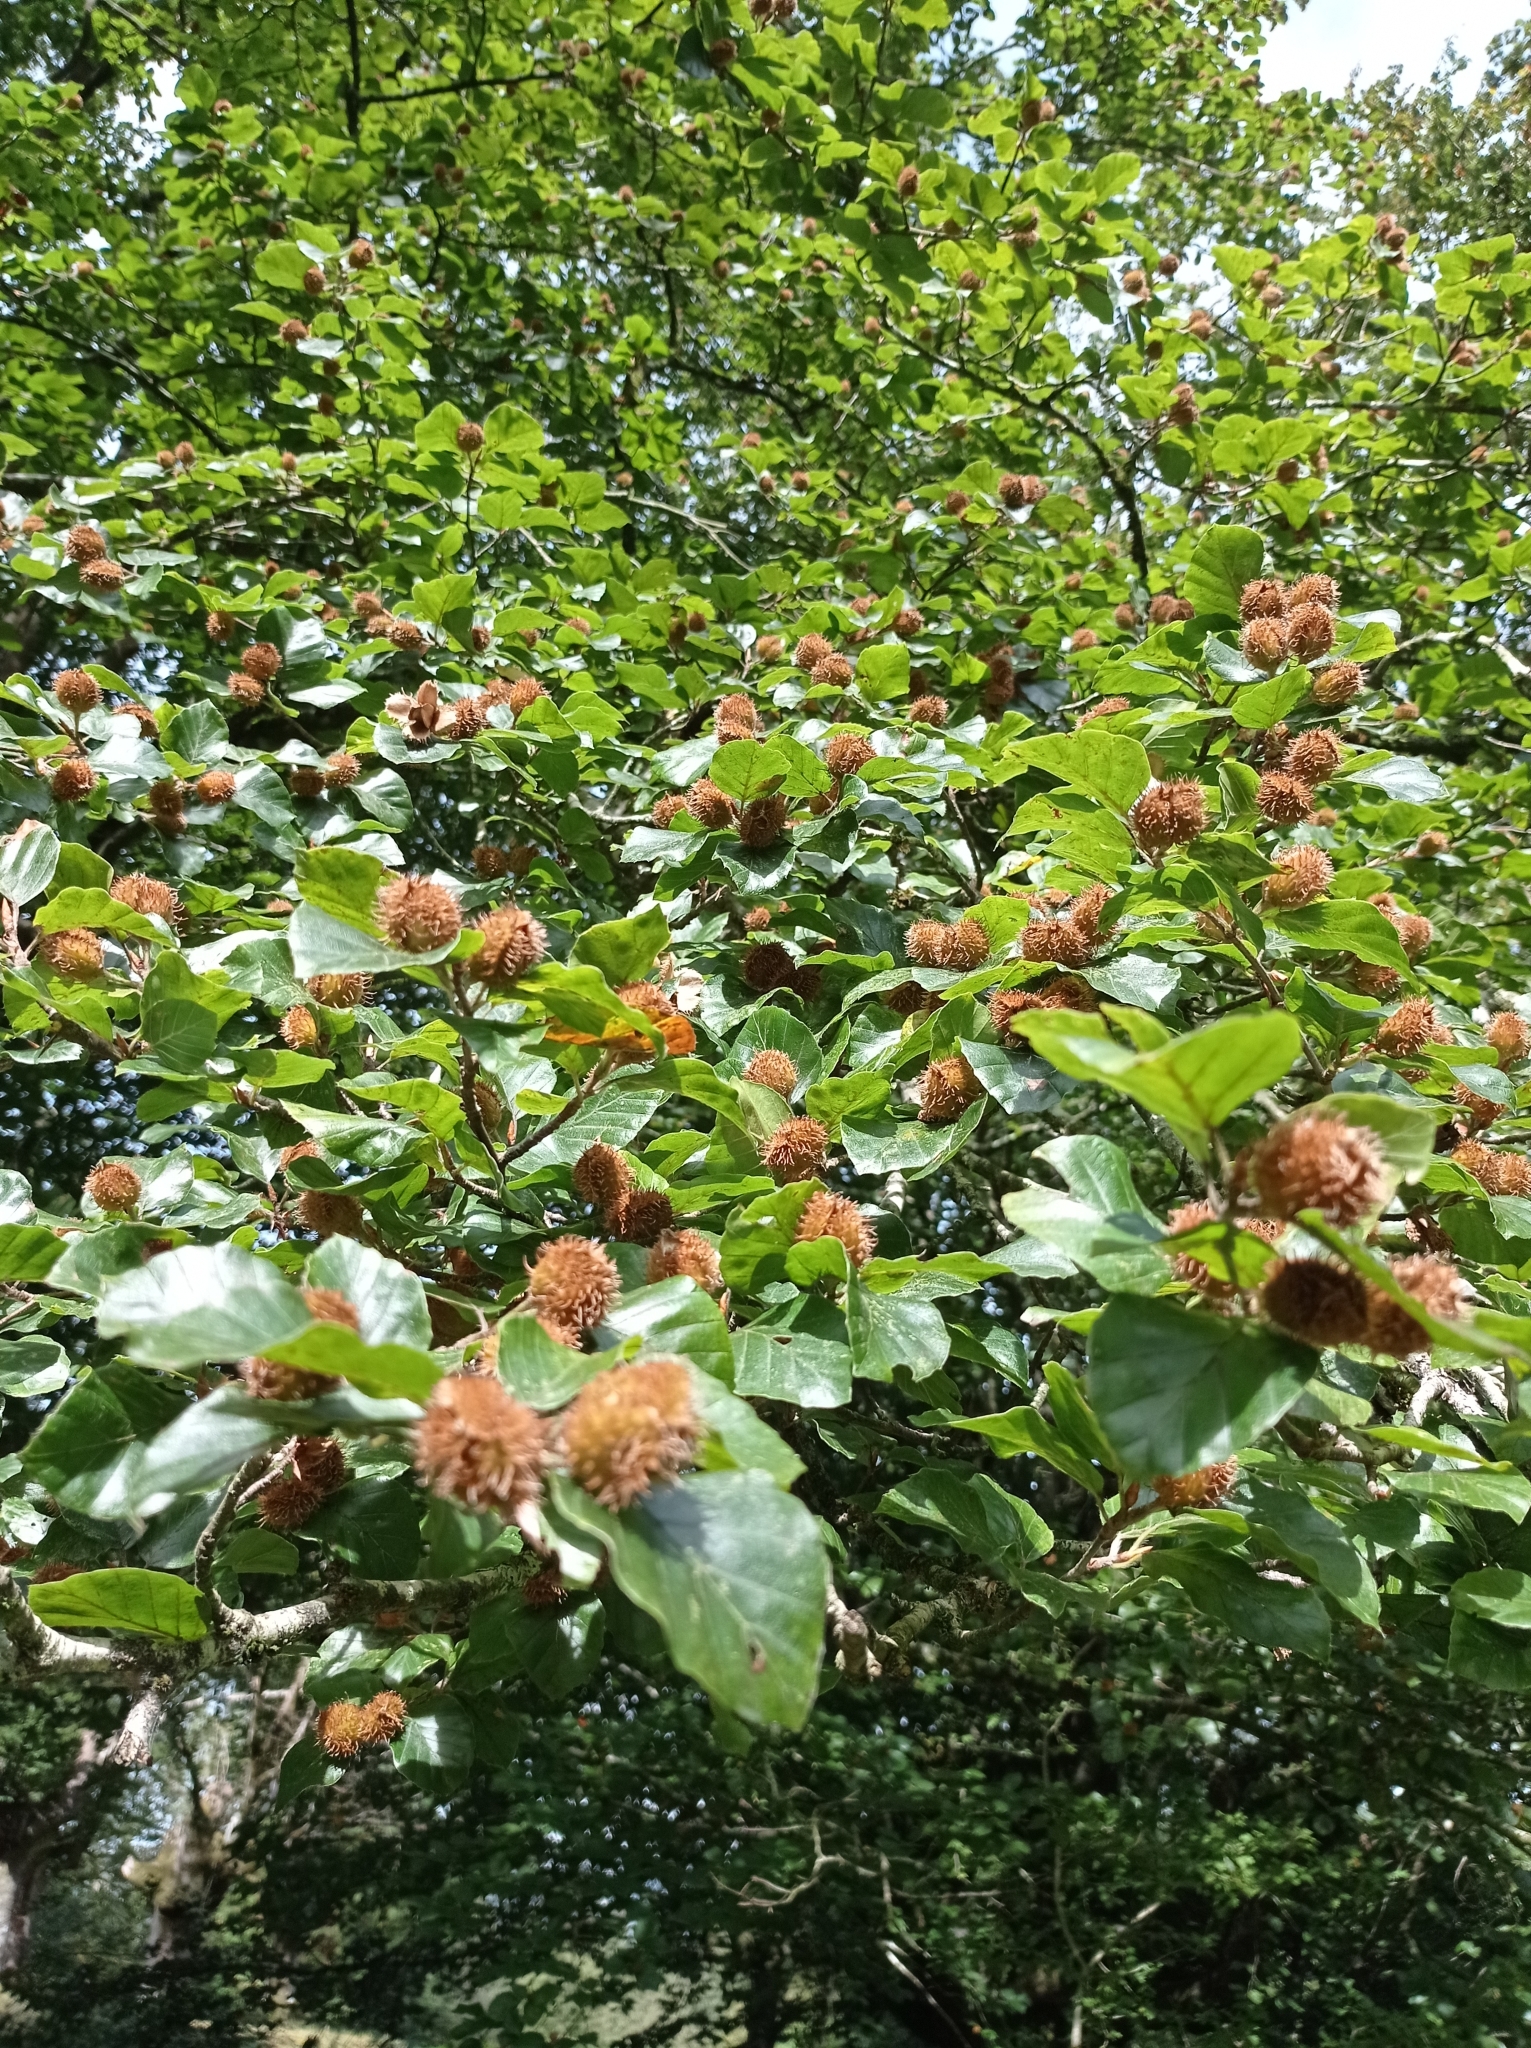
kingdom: Plantae
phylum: Tracheophyta
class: Magnoliopsida
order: Fagales
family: Fagaceae
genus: Fagus
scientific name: Fagus sylvatica
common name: Beech
